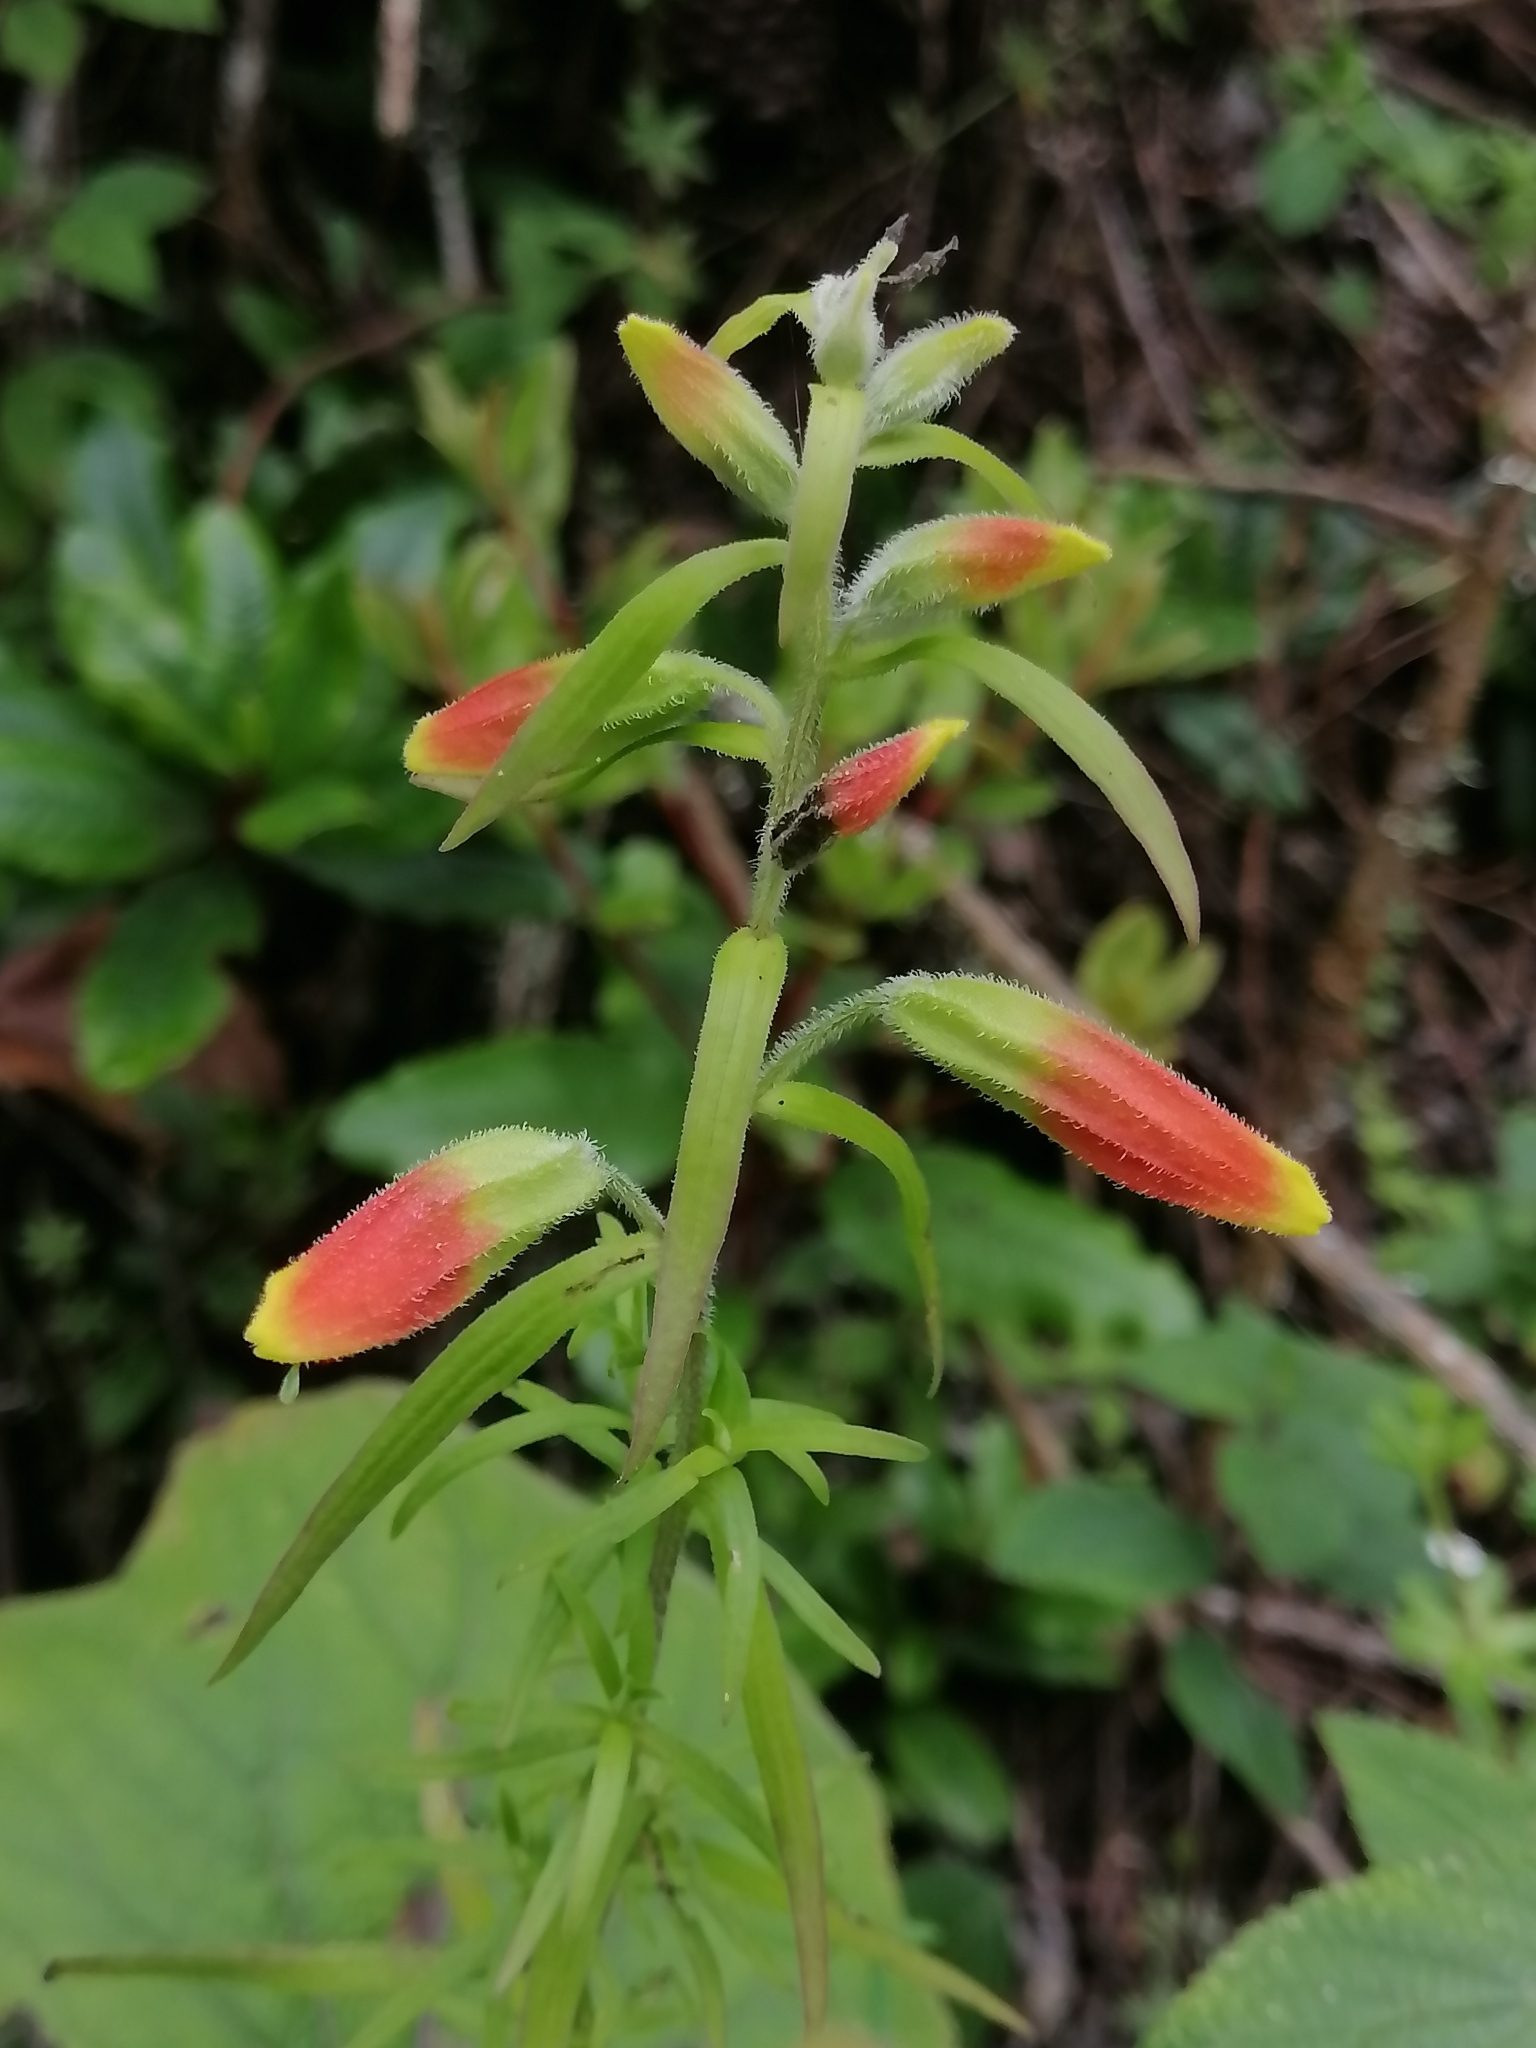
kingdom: Plantae
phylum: Tracheophyta
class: Magnoliopsida
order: Lamiales
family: Orobanchaceae
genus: Castilleja
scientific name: Castilleja integrifolia
